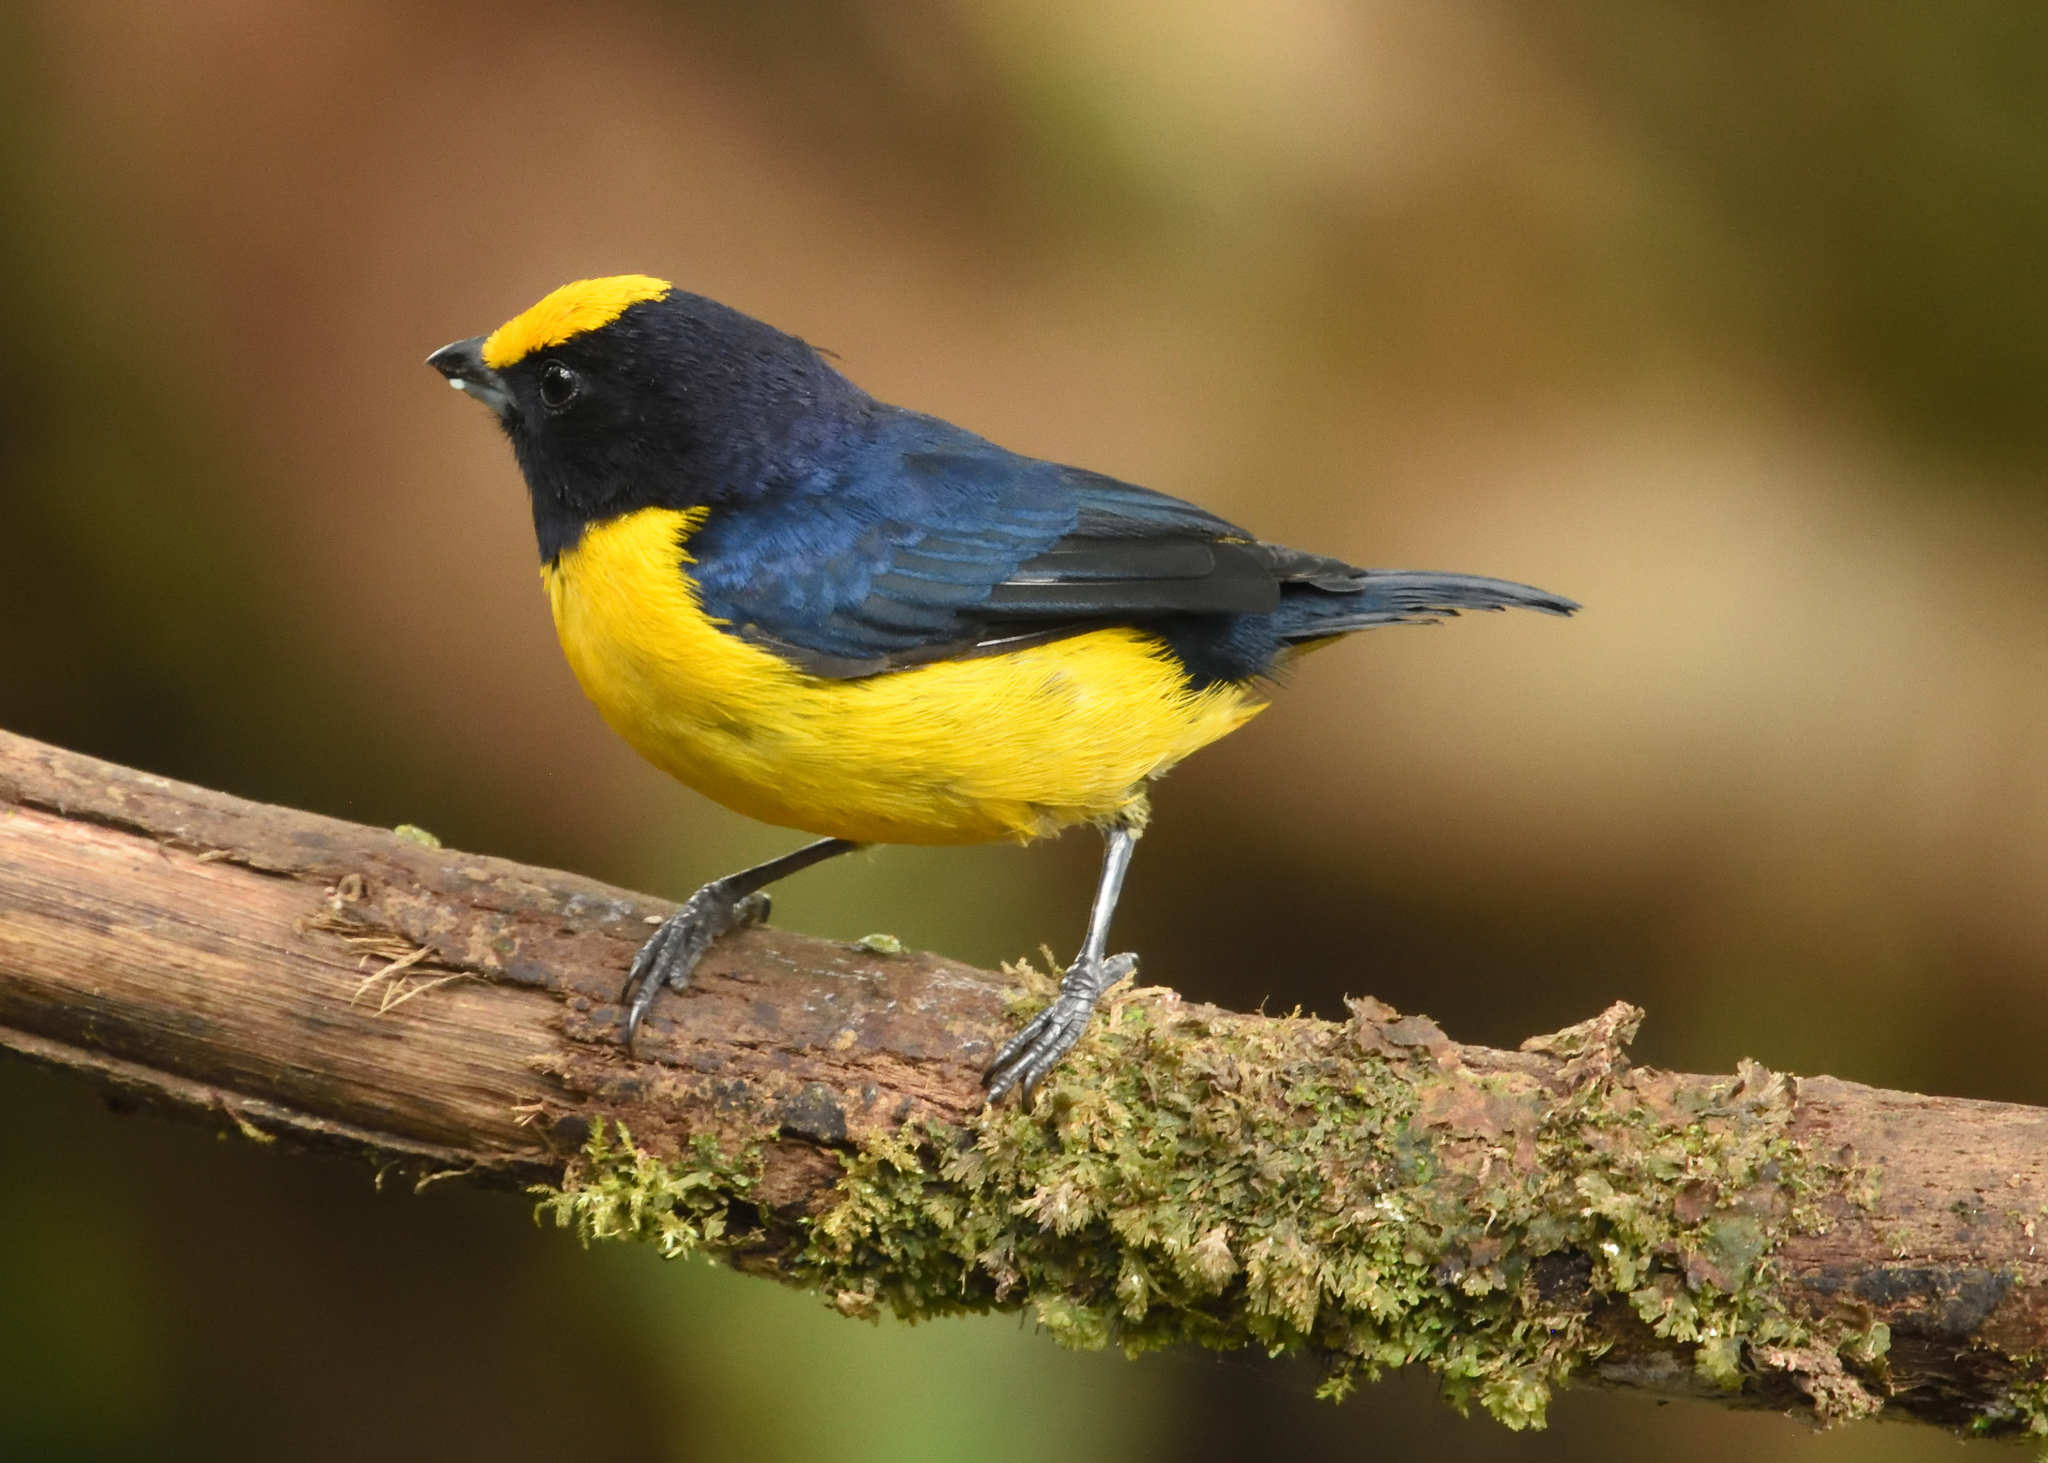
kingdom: Animalia
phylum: Chordata
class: Aves
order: Passeriformes
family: Fringillidae
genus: Euphonia
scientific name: Euphonia xanthogaster
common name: Orange-bellied euphonia
